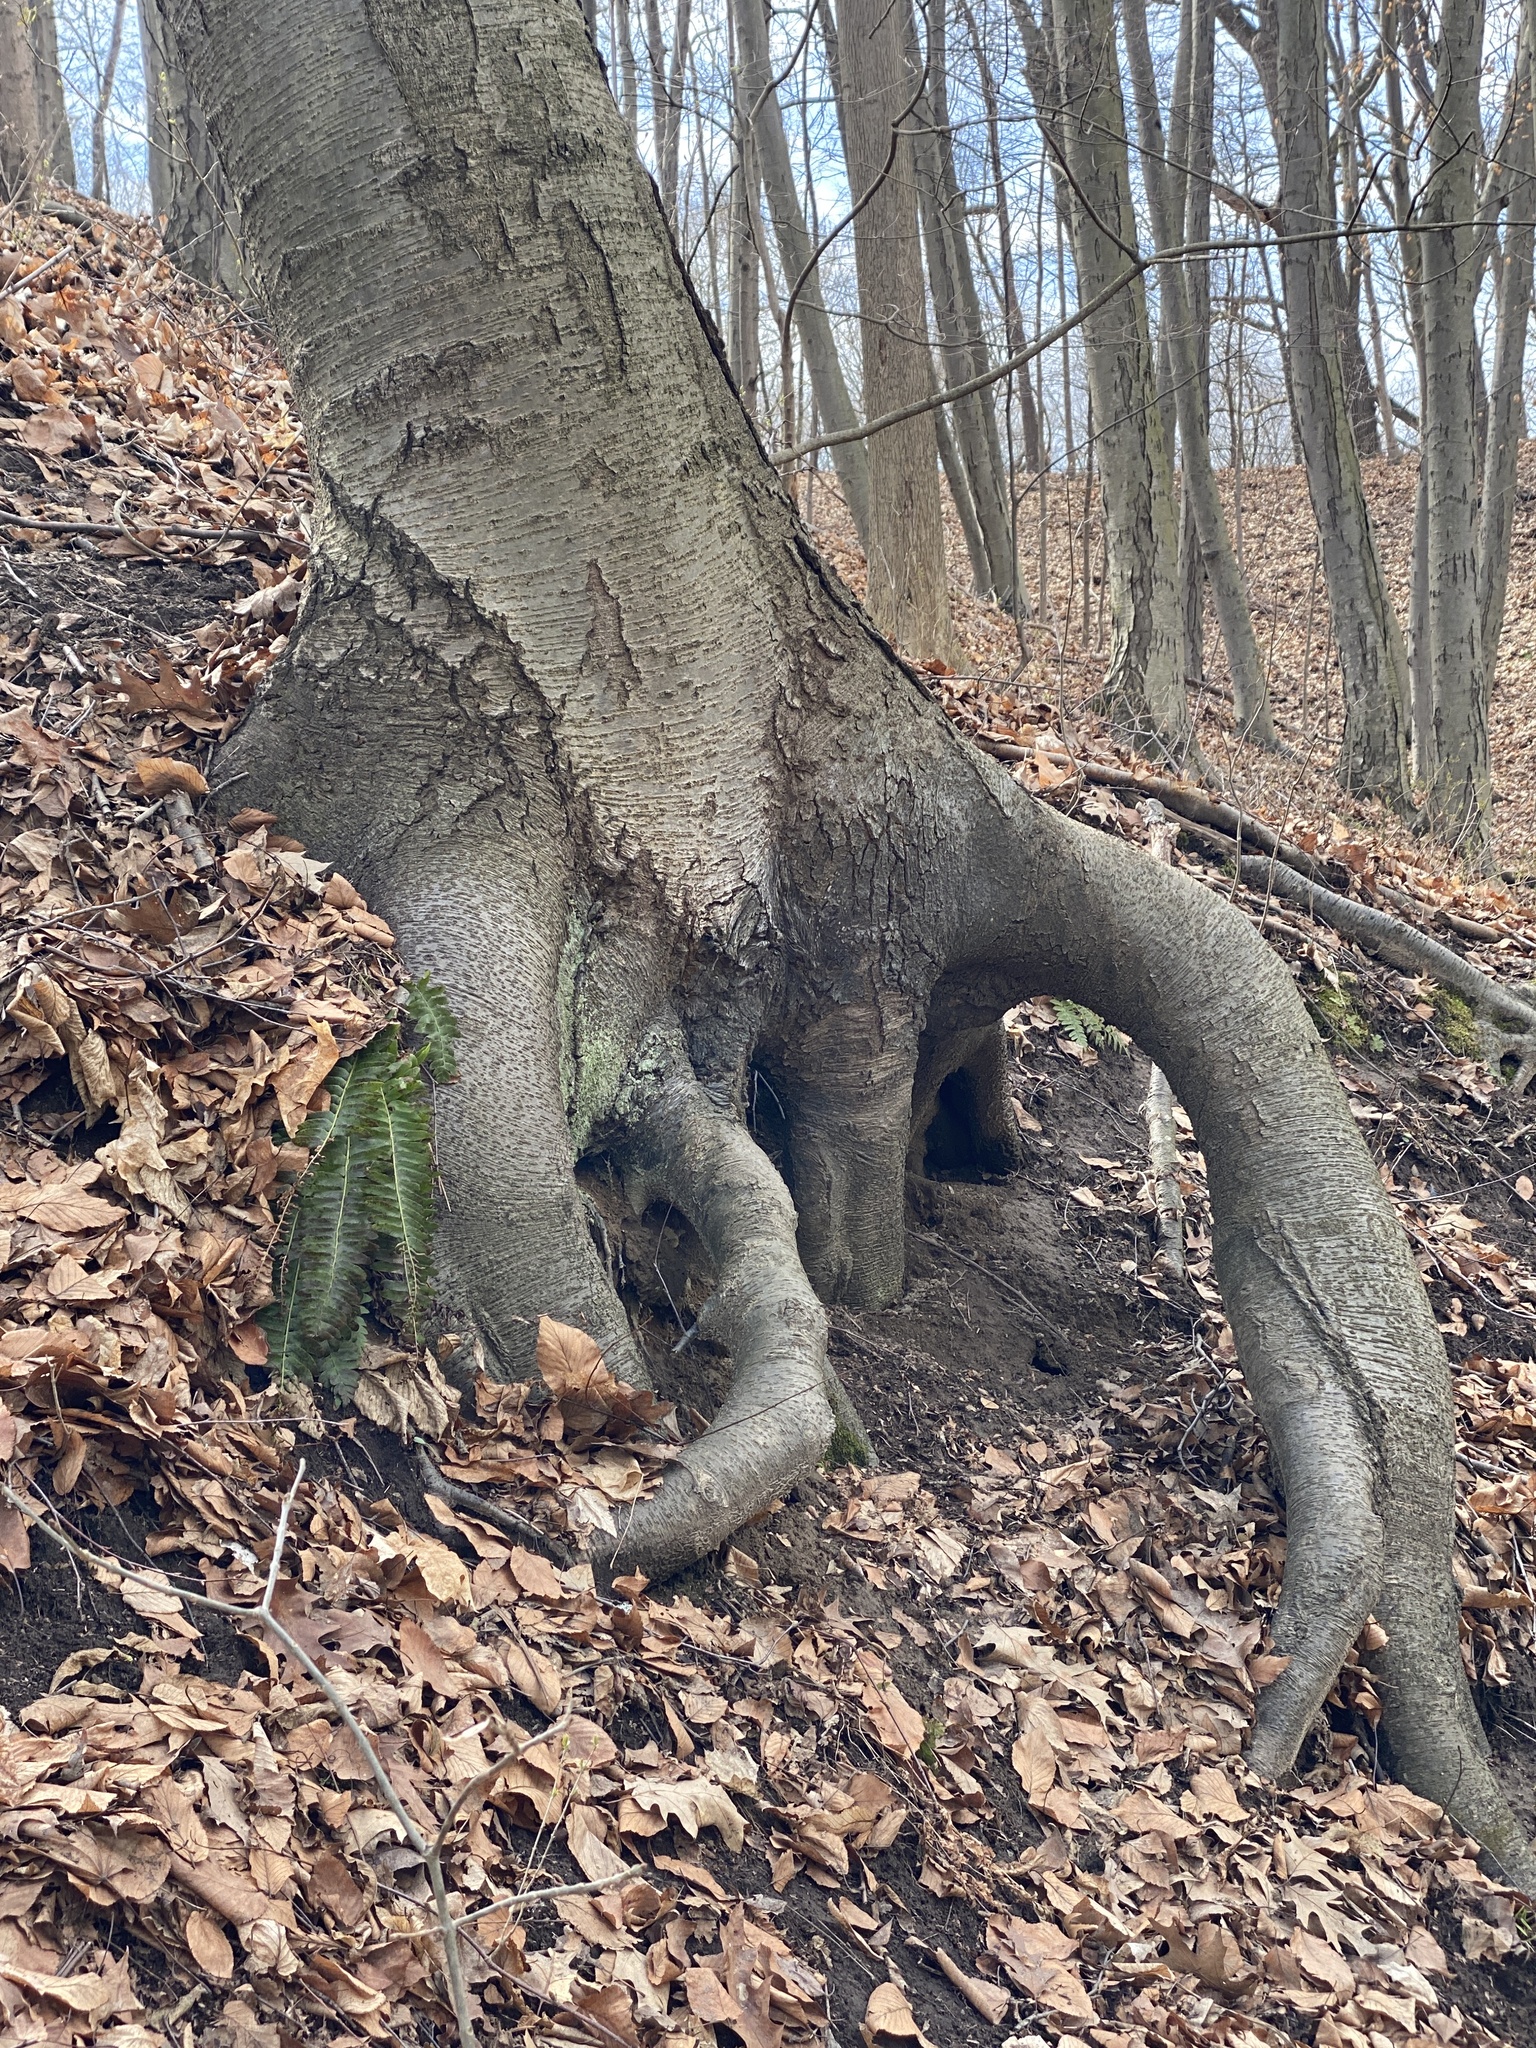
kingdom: Plantae
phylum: Tracheophyta
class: Magnoliopsida
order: Fagales
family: Betulaceae
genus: Betula
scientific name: Betula lenta
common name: Black birch
